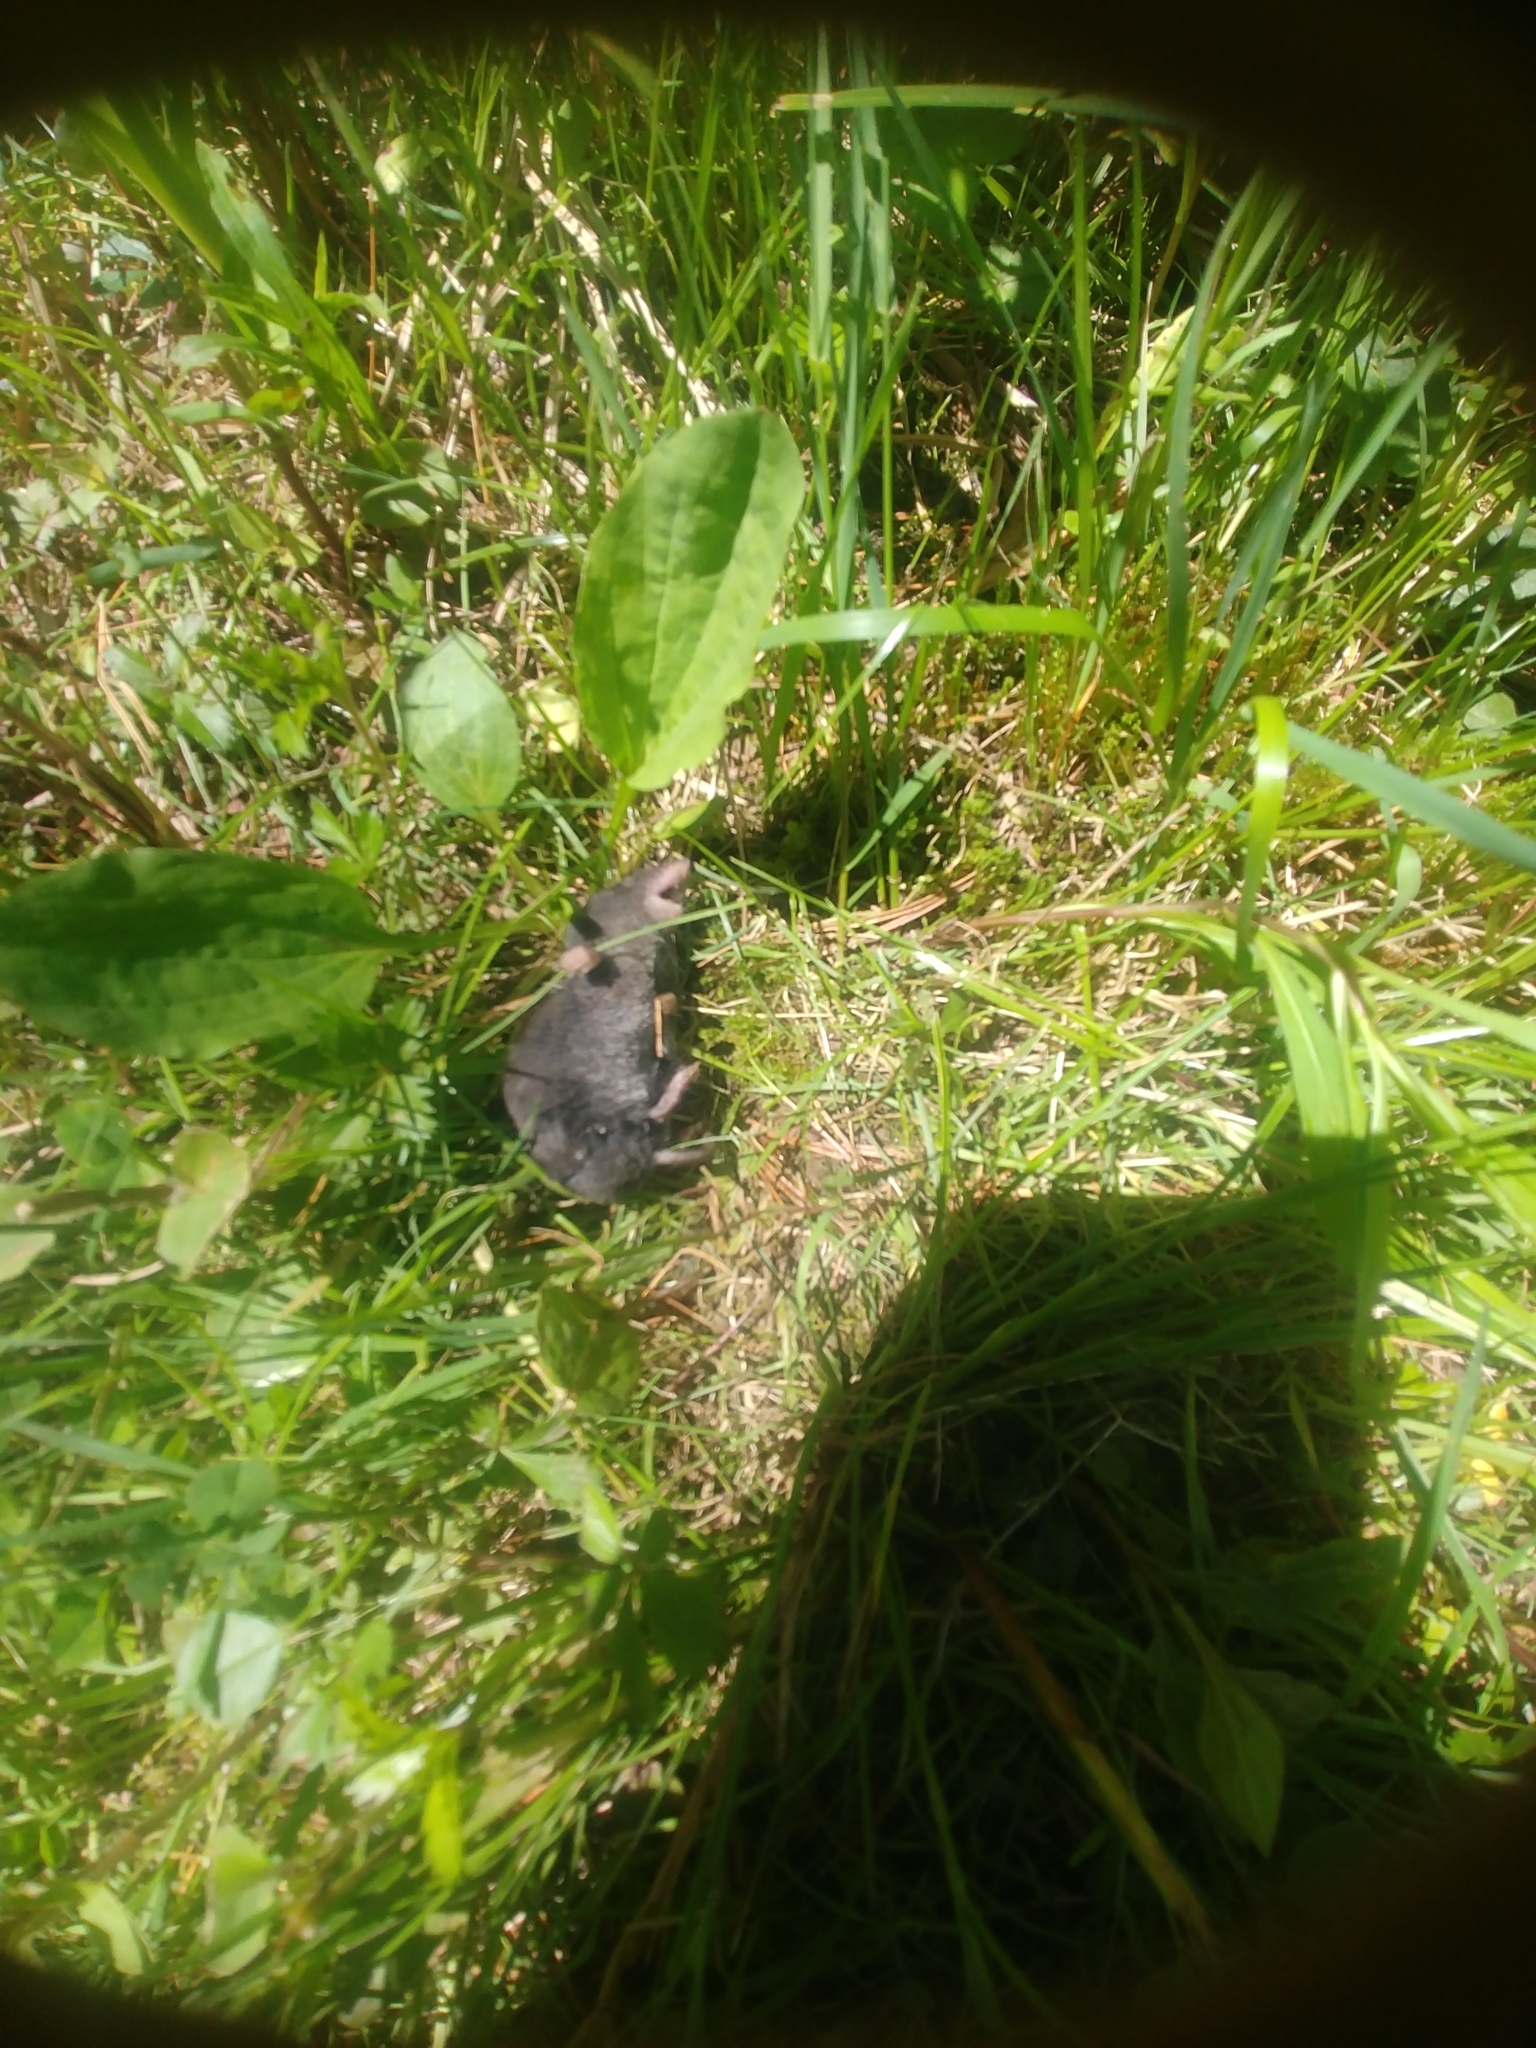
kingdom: Animalia
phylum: Chordata
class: Mammalia
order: Soricomorpha
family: Soricidae
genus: Blarina
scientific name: Blarina brevicauda
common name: Northern short-tailed shrew
